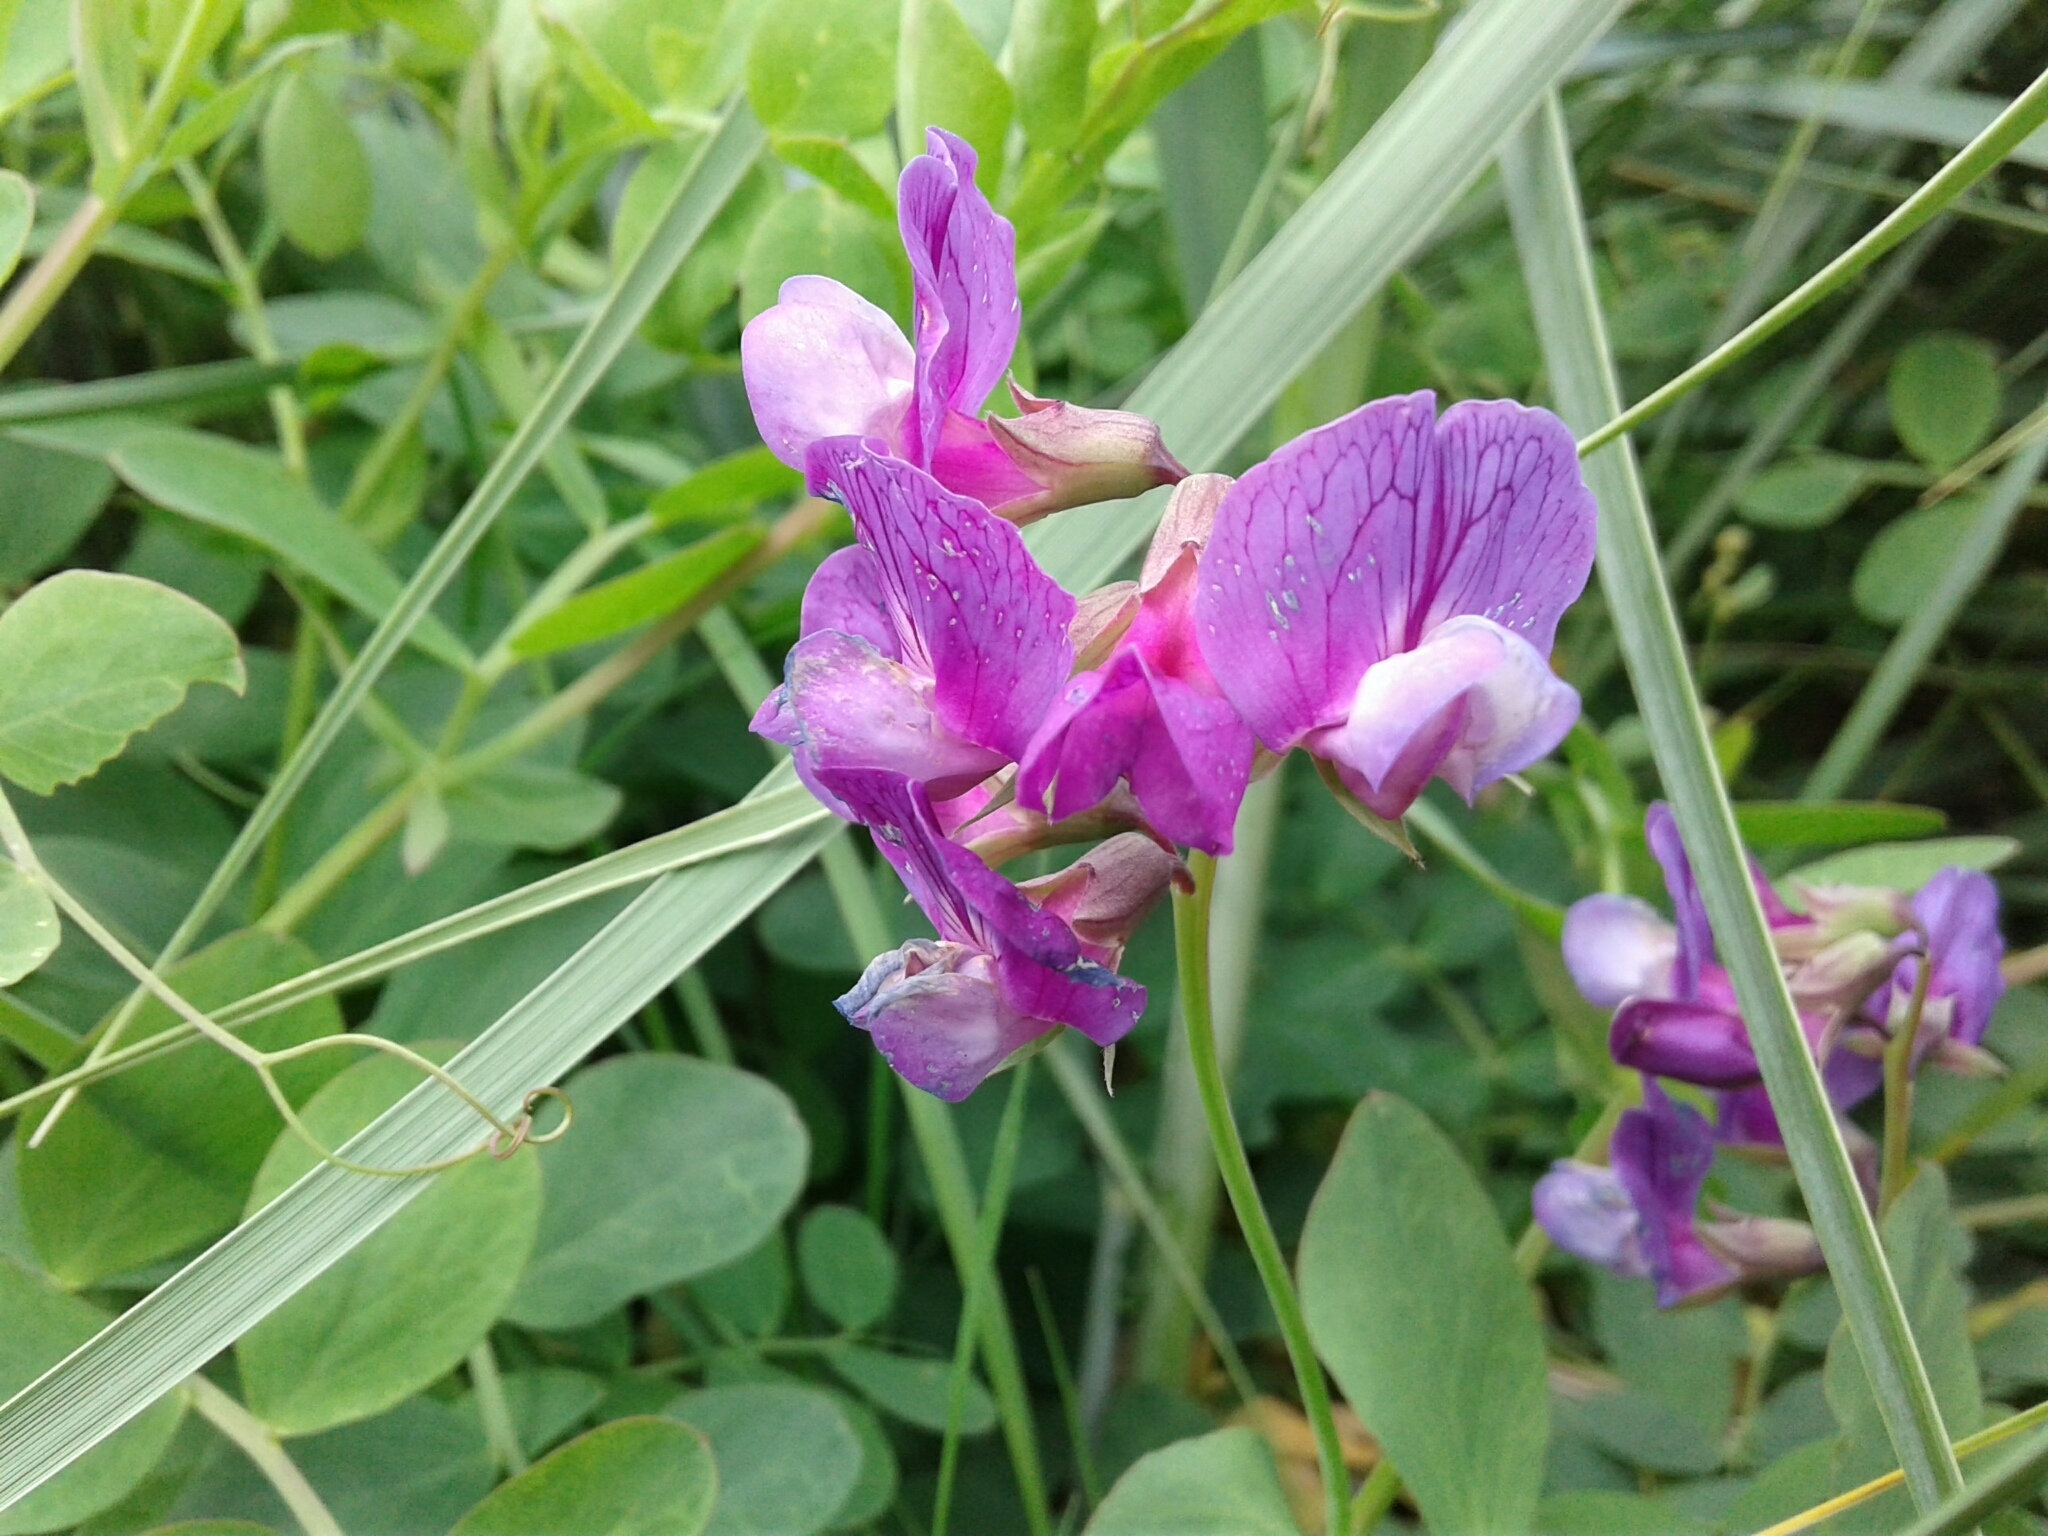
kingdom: Plantae
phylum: Tracheophyta
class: Magnoliopsida
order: Fabales
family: Fabaceae
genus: Lathyrus
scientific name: Lathyrus japonicus
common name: Sea pea
